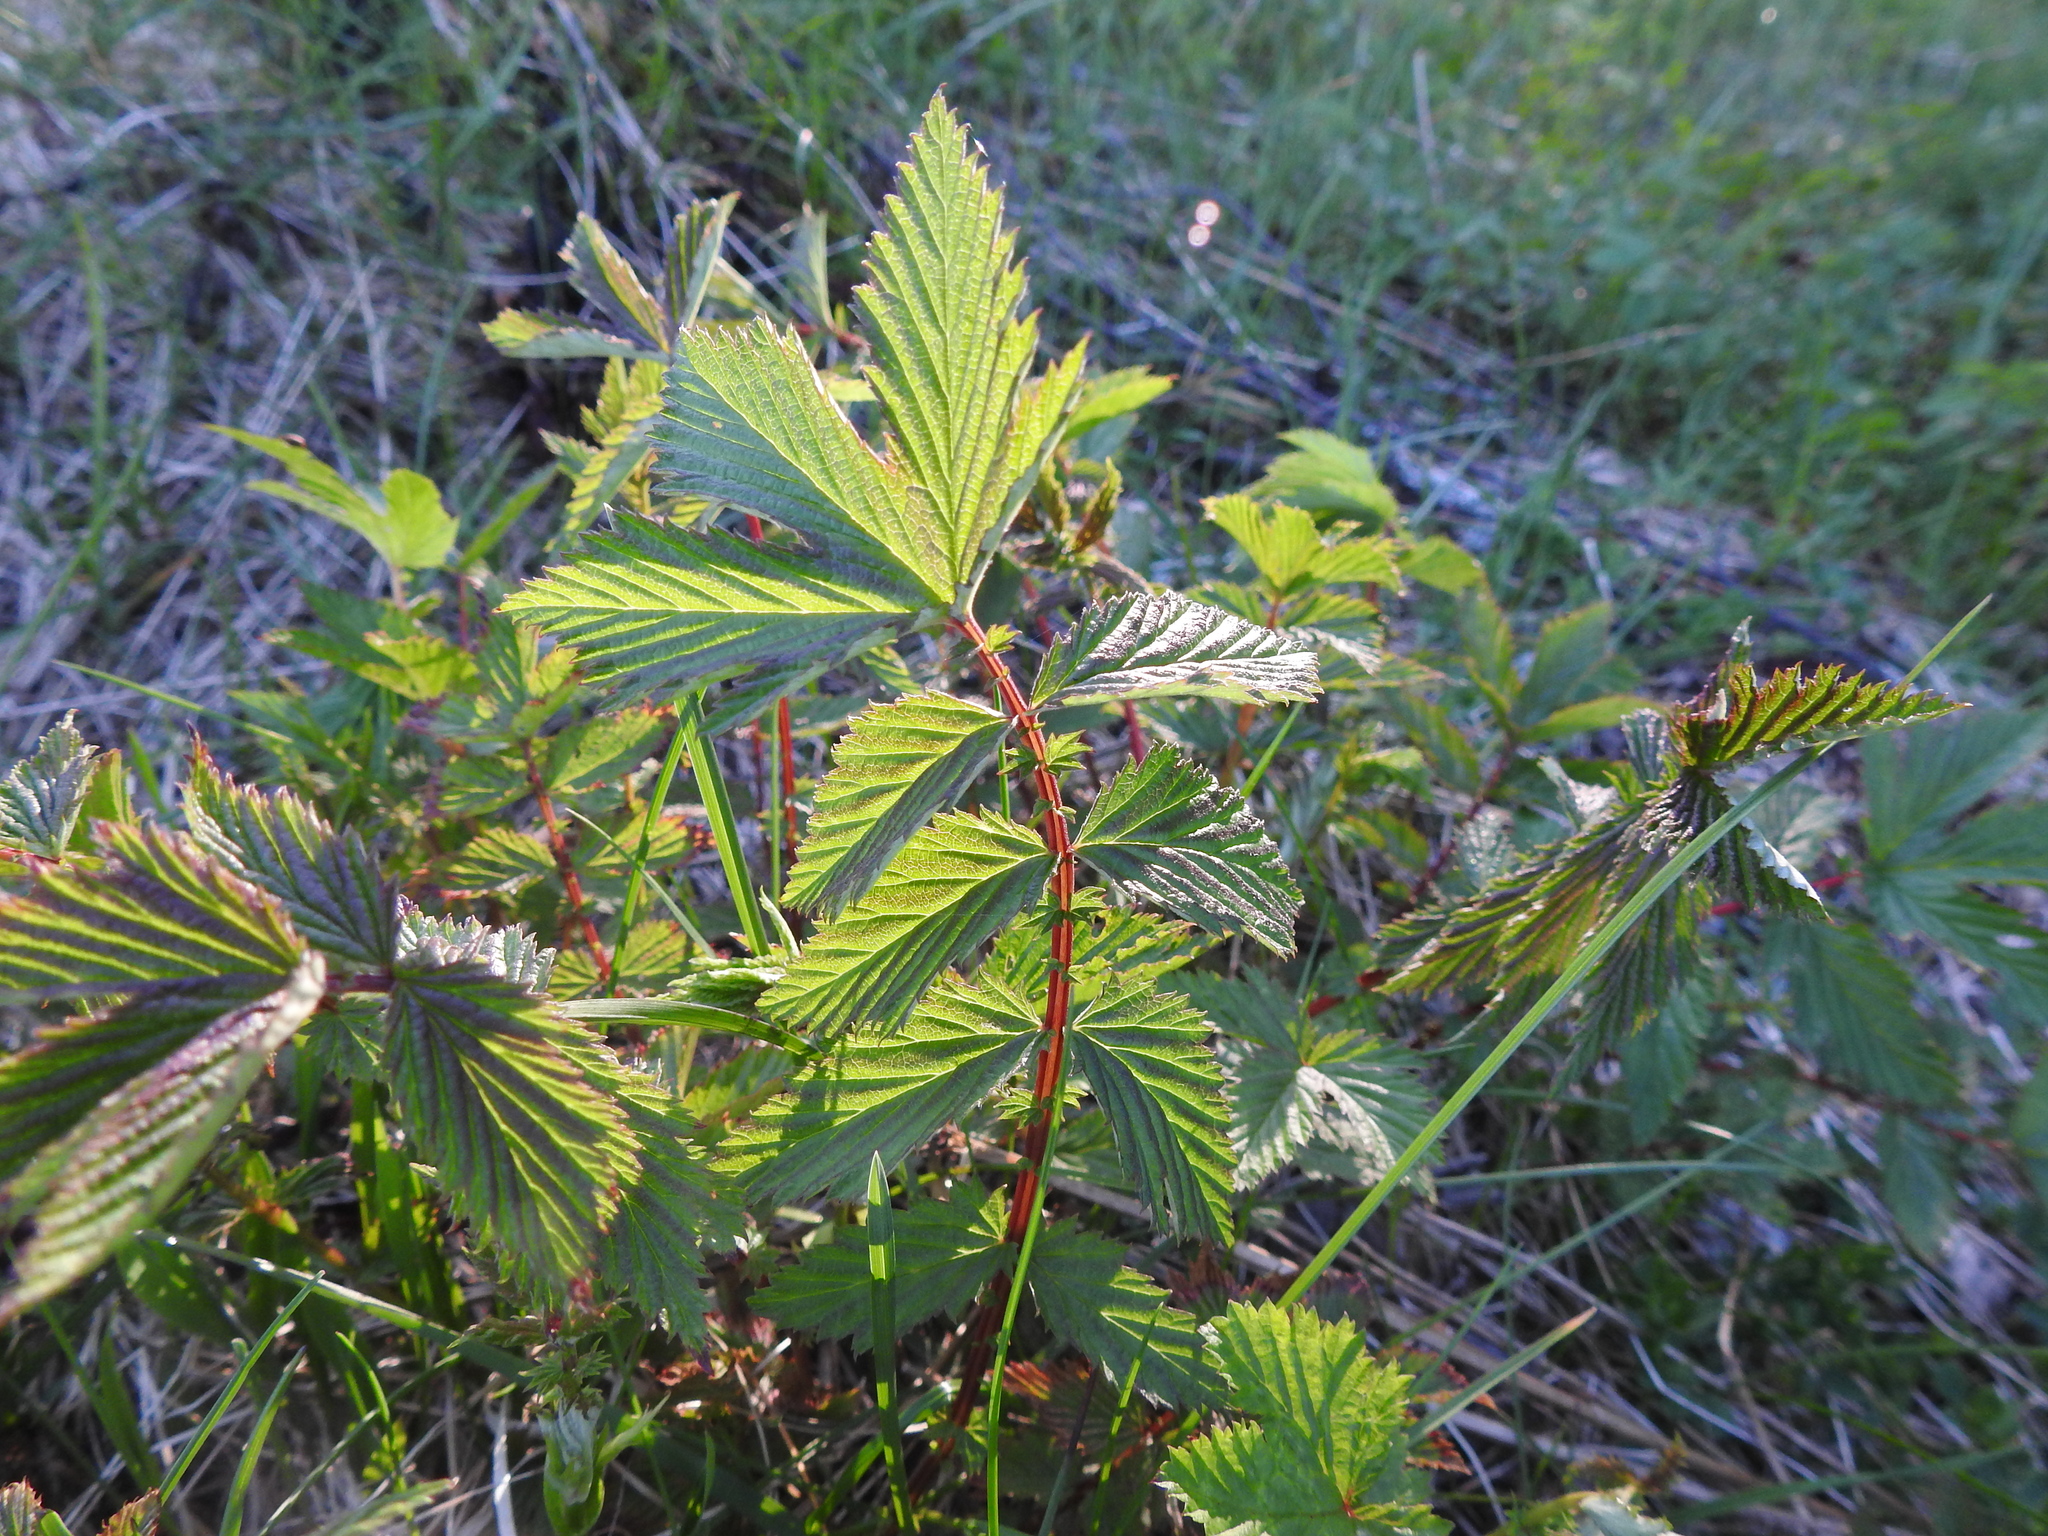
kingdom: Plantae
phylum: Tracheophyta
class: Magnoliopsida
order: Rosales
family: Rosaceae
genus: Filipendula
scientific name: Filipendula ulmaria
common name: Meadowsweet
